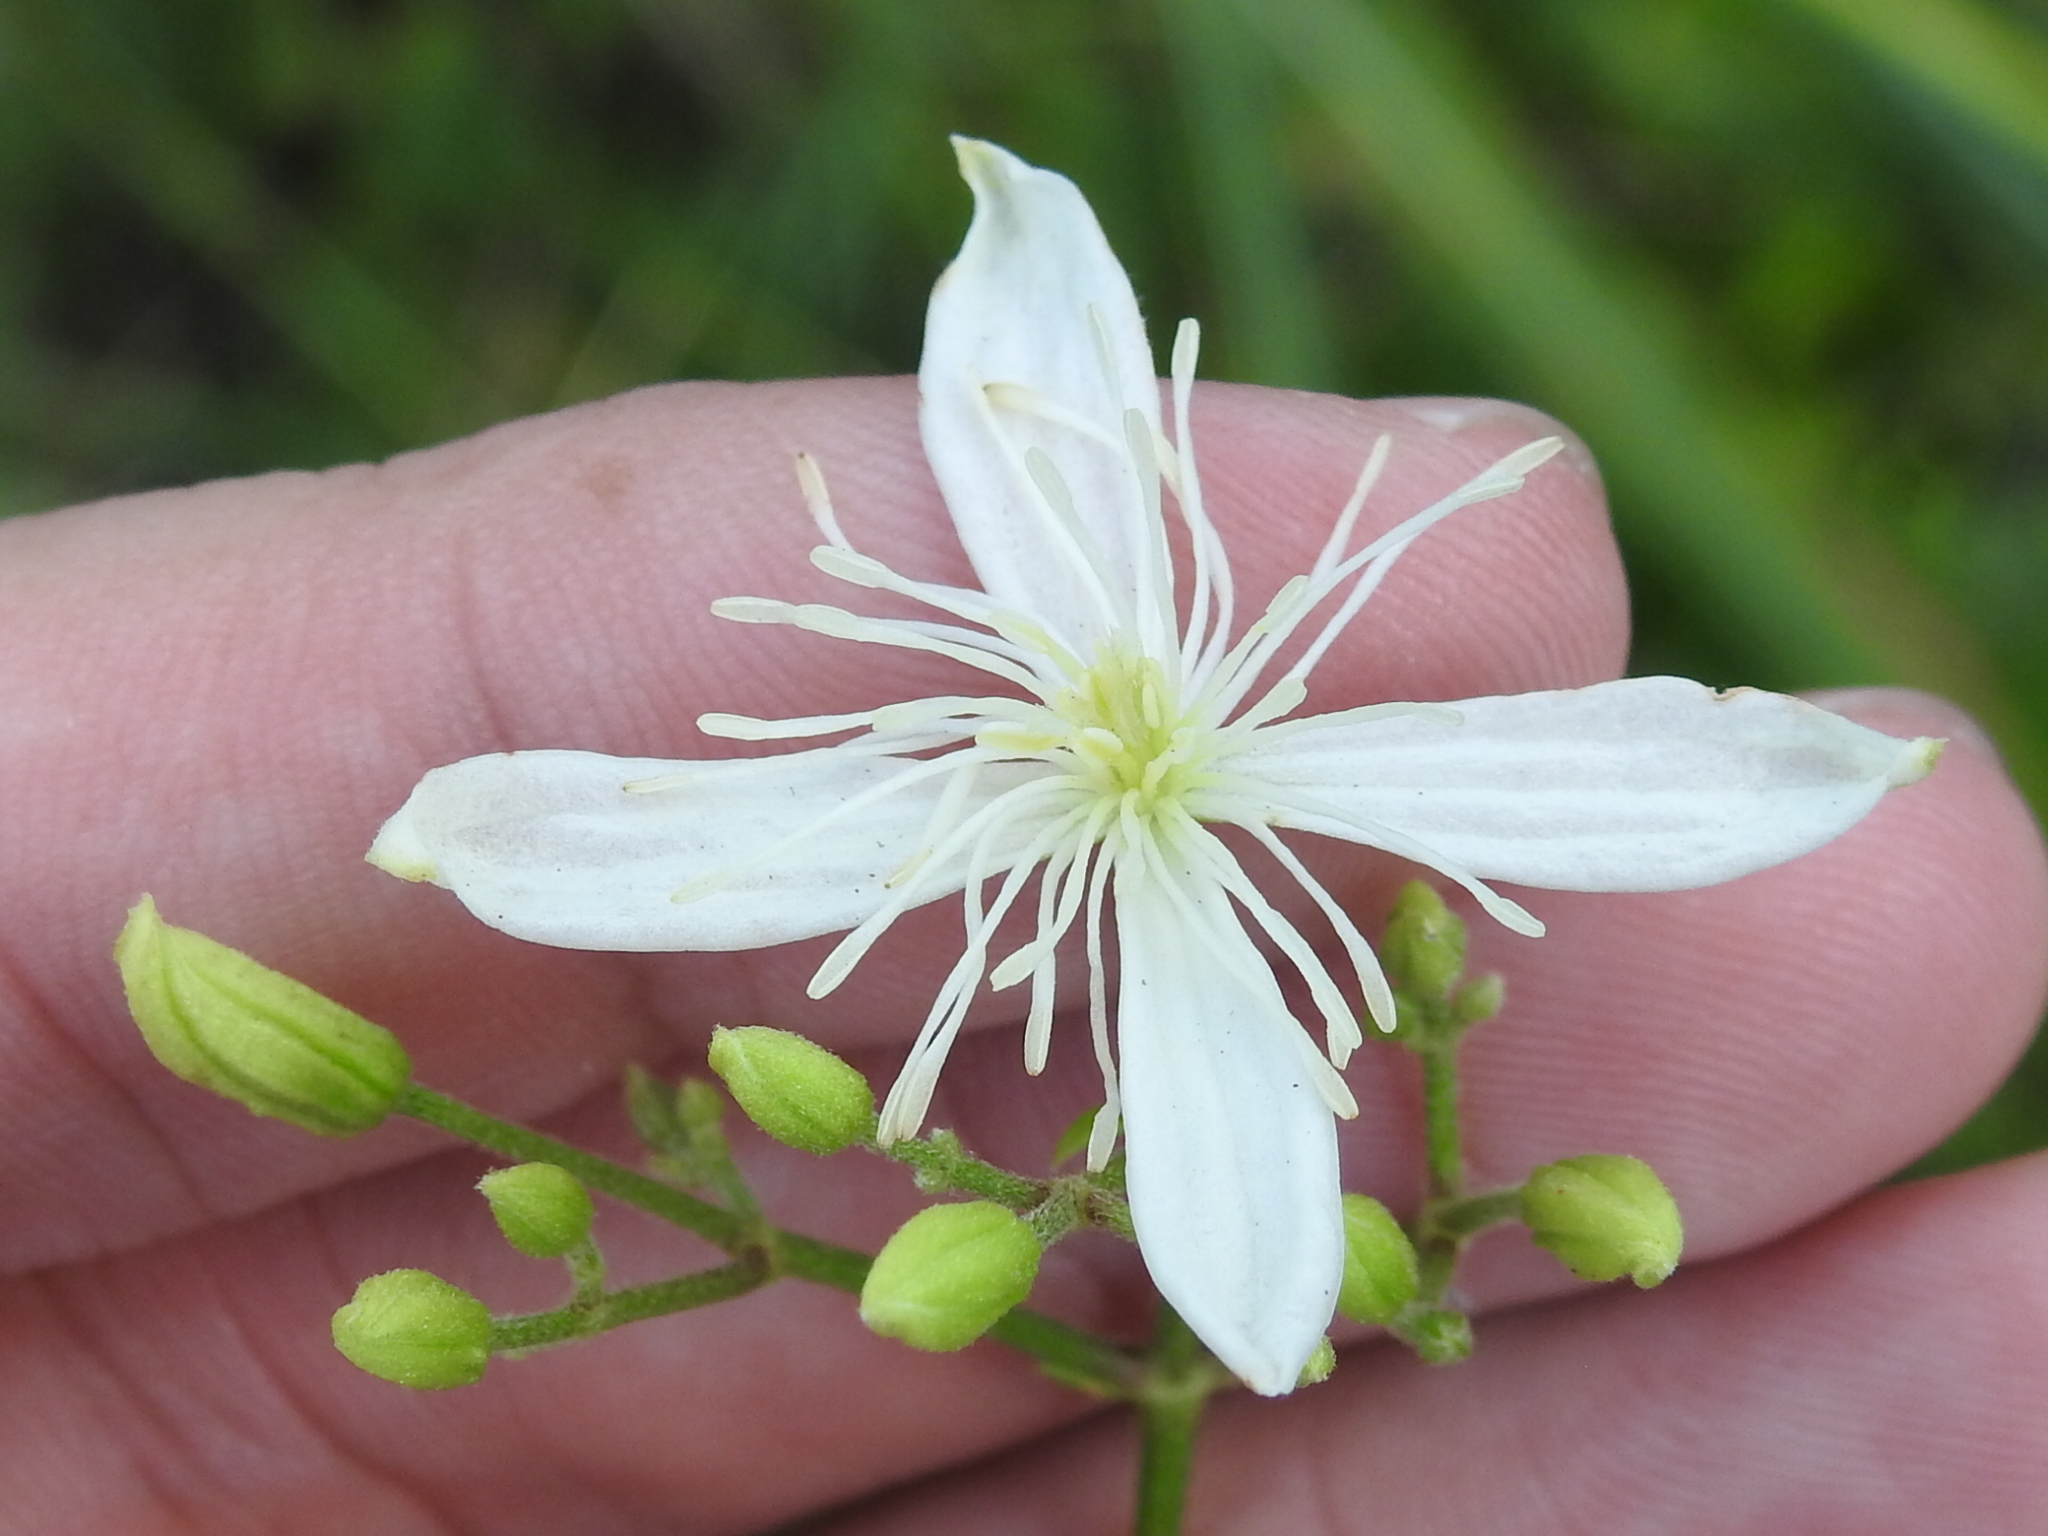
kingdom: Plantae
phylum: Tracheophyta
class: Magnoliopsida
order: Ranunculales
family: Ranunculaceae
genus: Clematis
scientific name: Clematis terniflora
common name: Sweet autumn clematis
